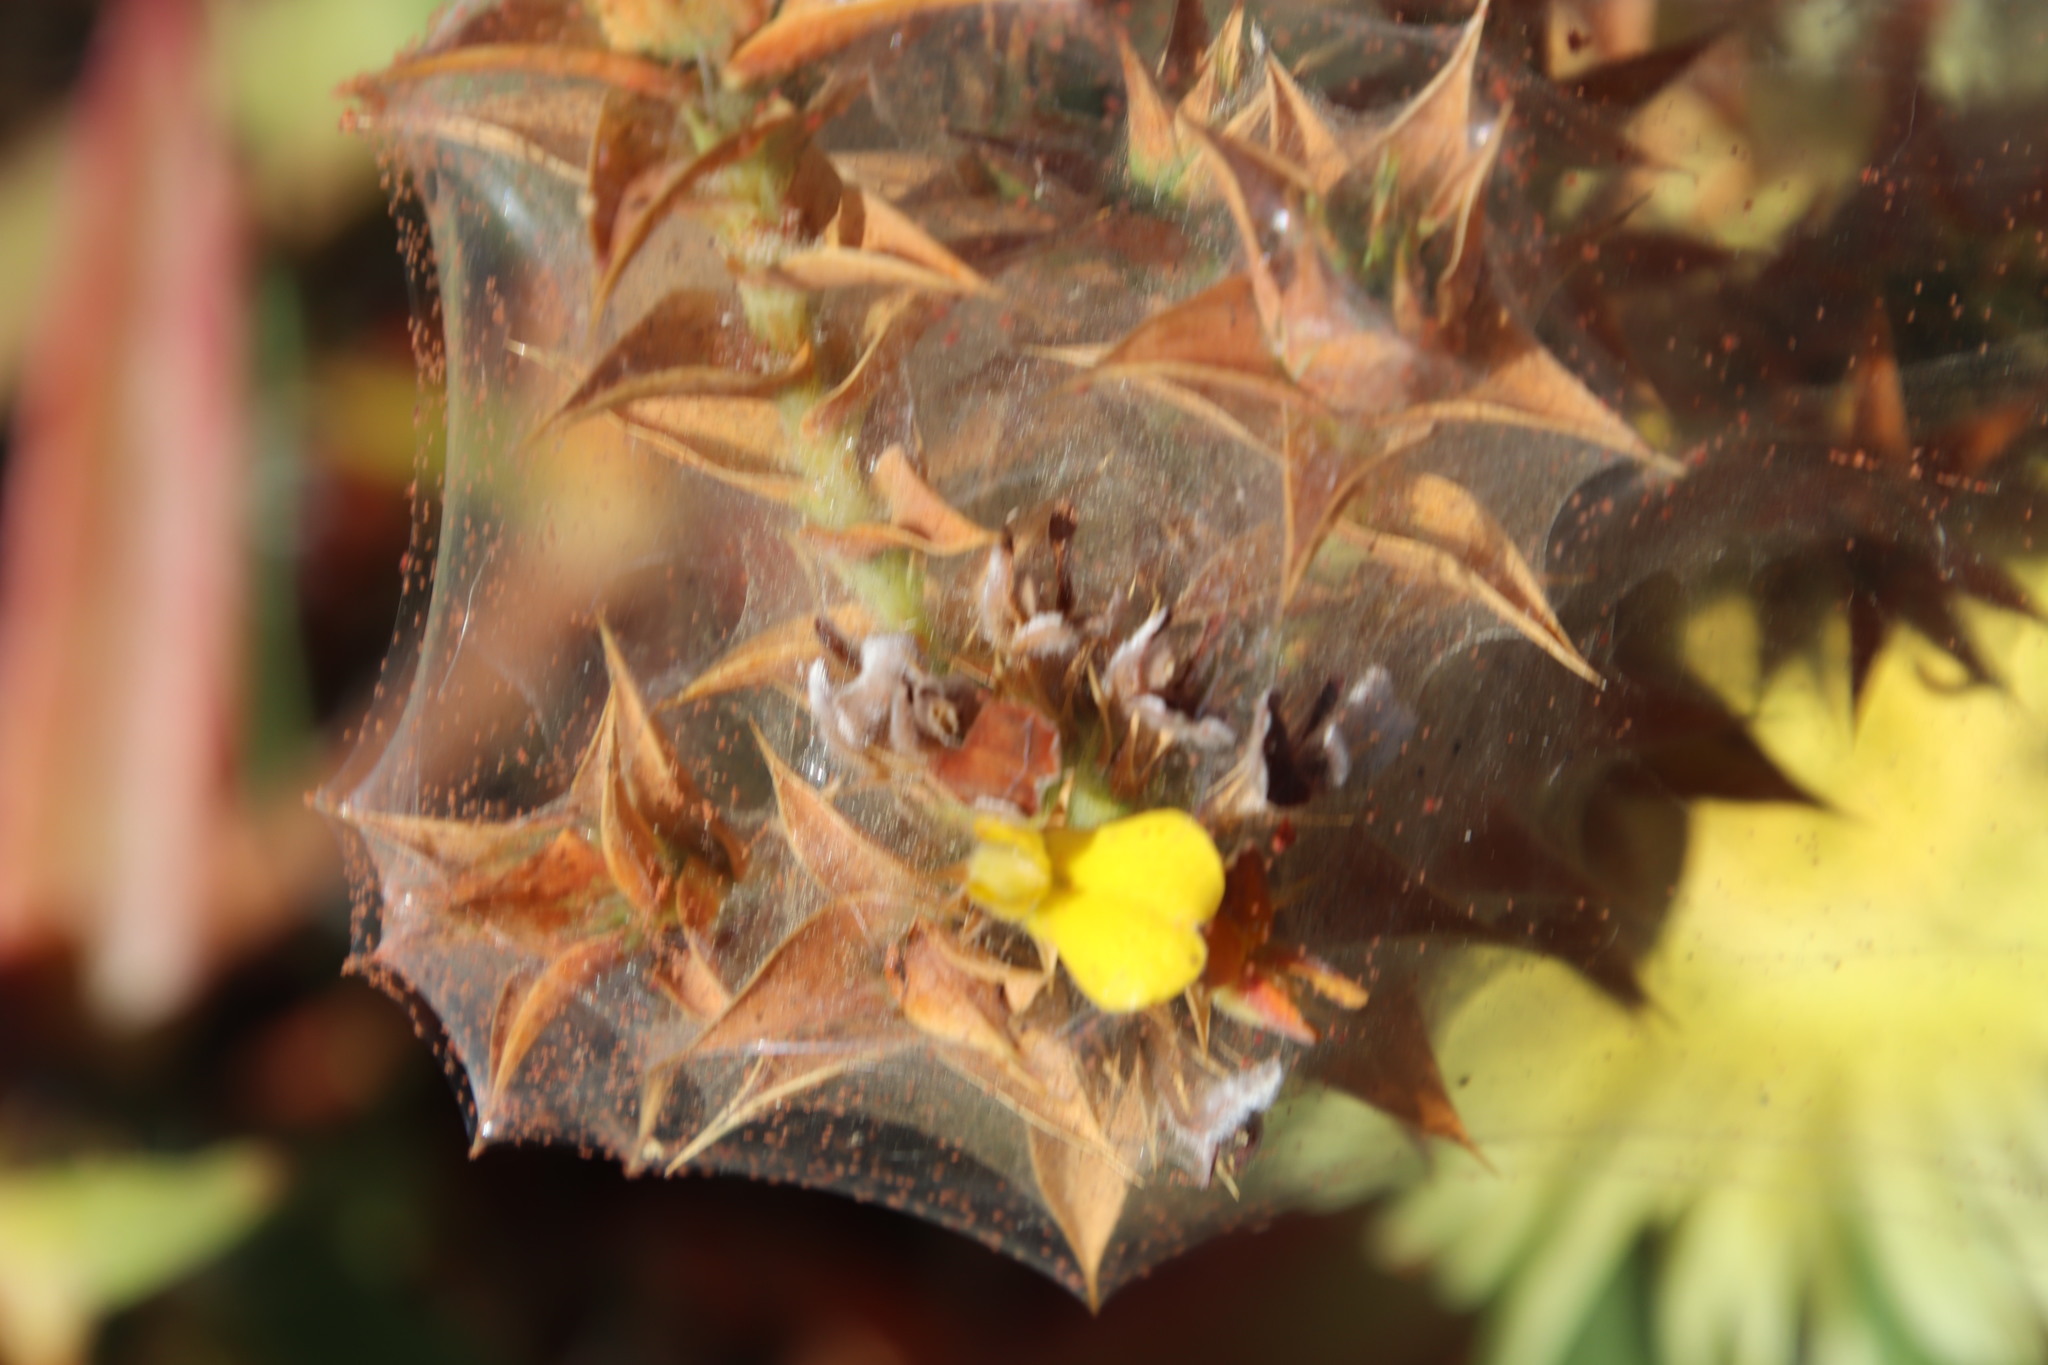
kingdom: Plantae
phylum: Tracheophyta
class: Magnoliopsida
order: Fabales
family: Fabaceae
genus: Aspalathus
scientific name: Aspalathus cordata
